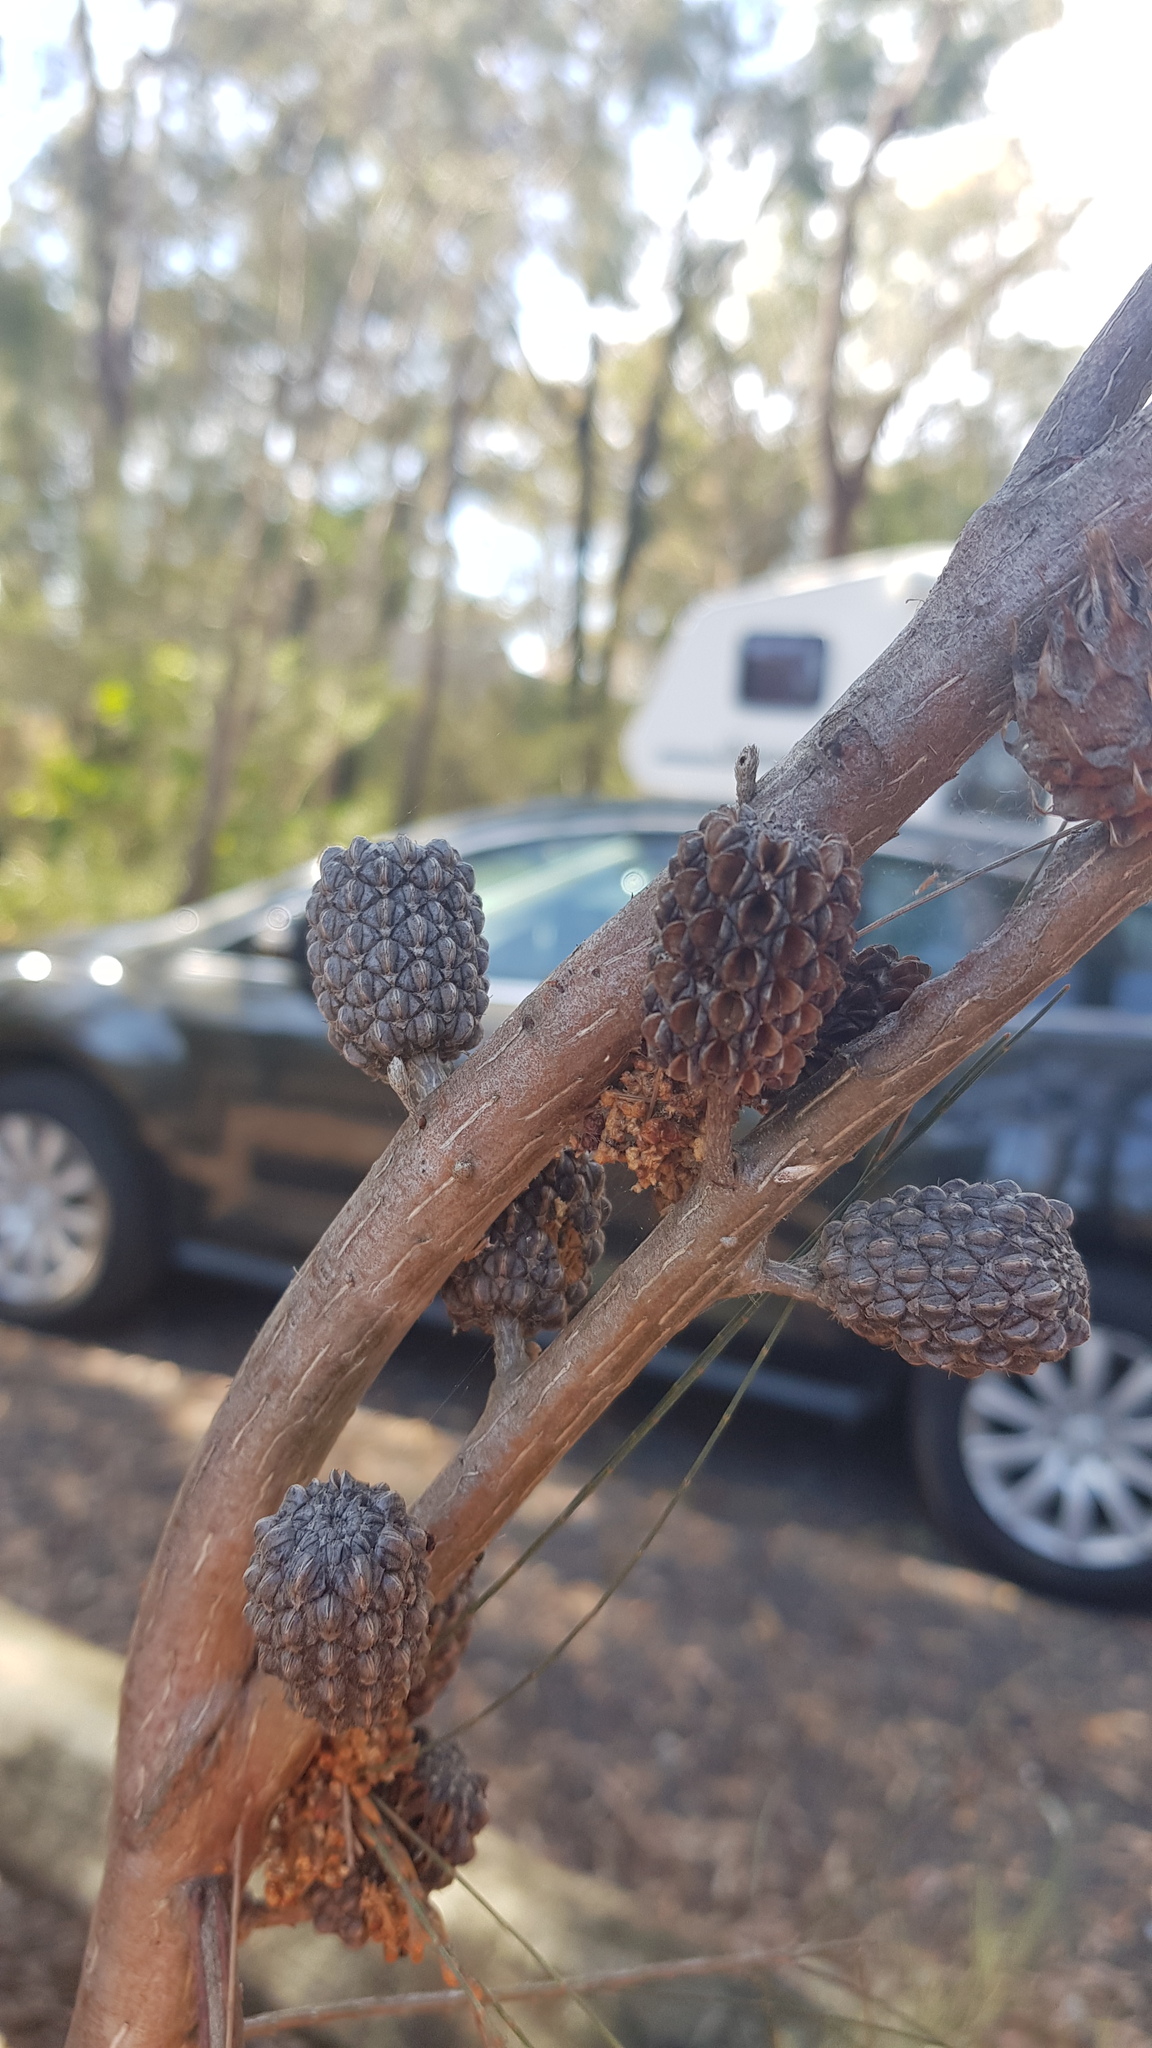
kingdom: Animalia
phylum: Arthropoda
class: Insecta
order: Hemiptera
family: Eriococcidae
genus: Cylindrococcus
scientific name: Cylindrococcus spiniferus
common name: Casuarina gall
